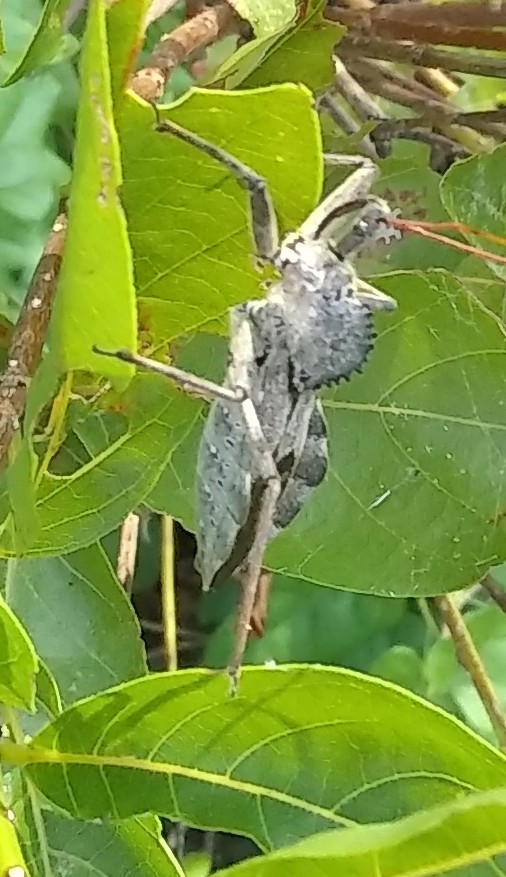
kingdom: Animalia
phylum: Arthropoda
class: Insecta
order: Hemiptera
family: Reduviidae
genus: Arilus
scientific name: Arilus cristatus
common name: North american wheel bug
